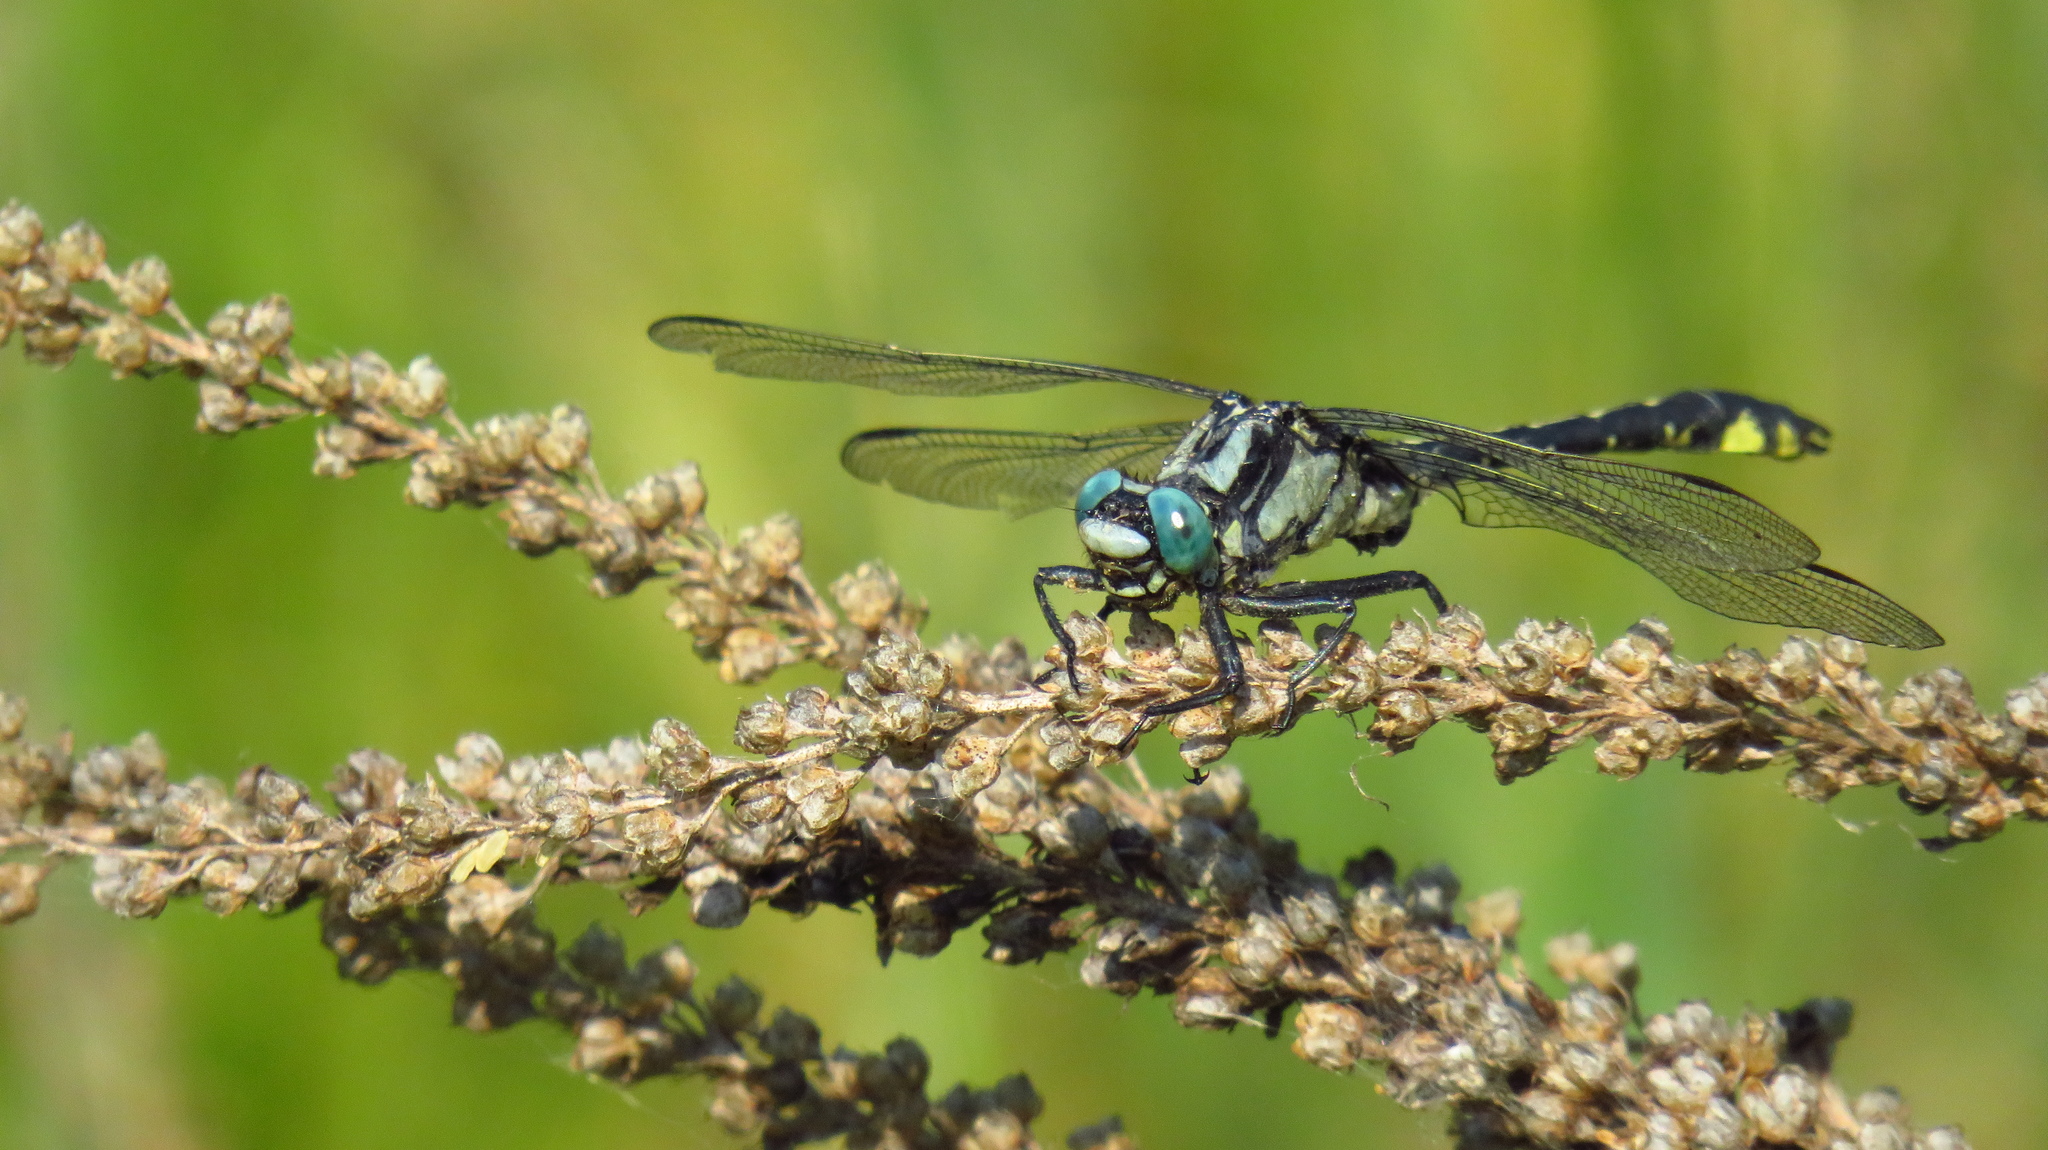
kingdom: Animalia
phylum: Arthropoda
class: Insecta
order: Odonata
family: Gomphidae
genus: Gomphus
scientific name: Gomphus vulgatissimus
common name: Club-tailed dragonfly
